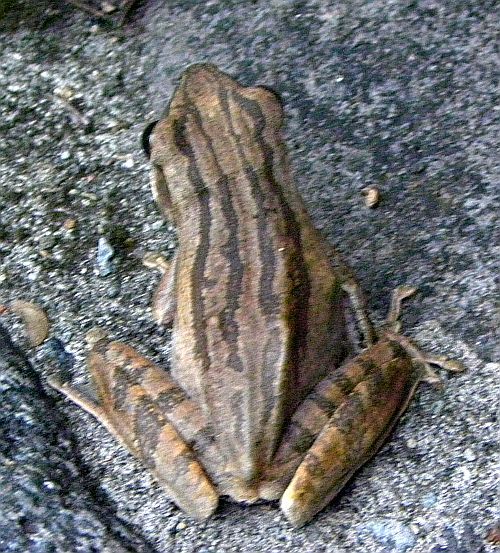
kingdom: Animalia
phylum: Chordata
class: Amphibia
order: Anura
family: Rhacophoridae
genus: Polypedates
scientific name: Polypedates leucomystax
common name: Common tree frog/four-lined tree frog
